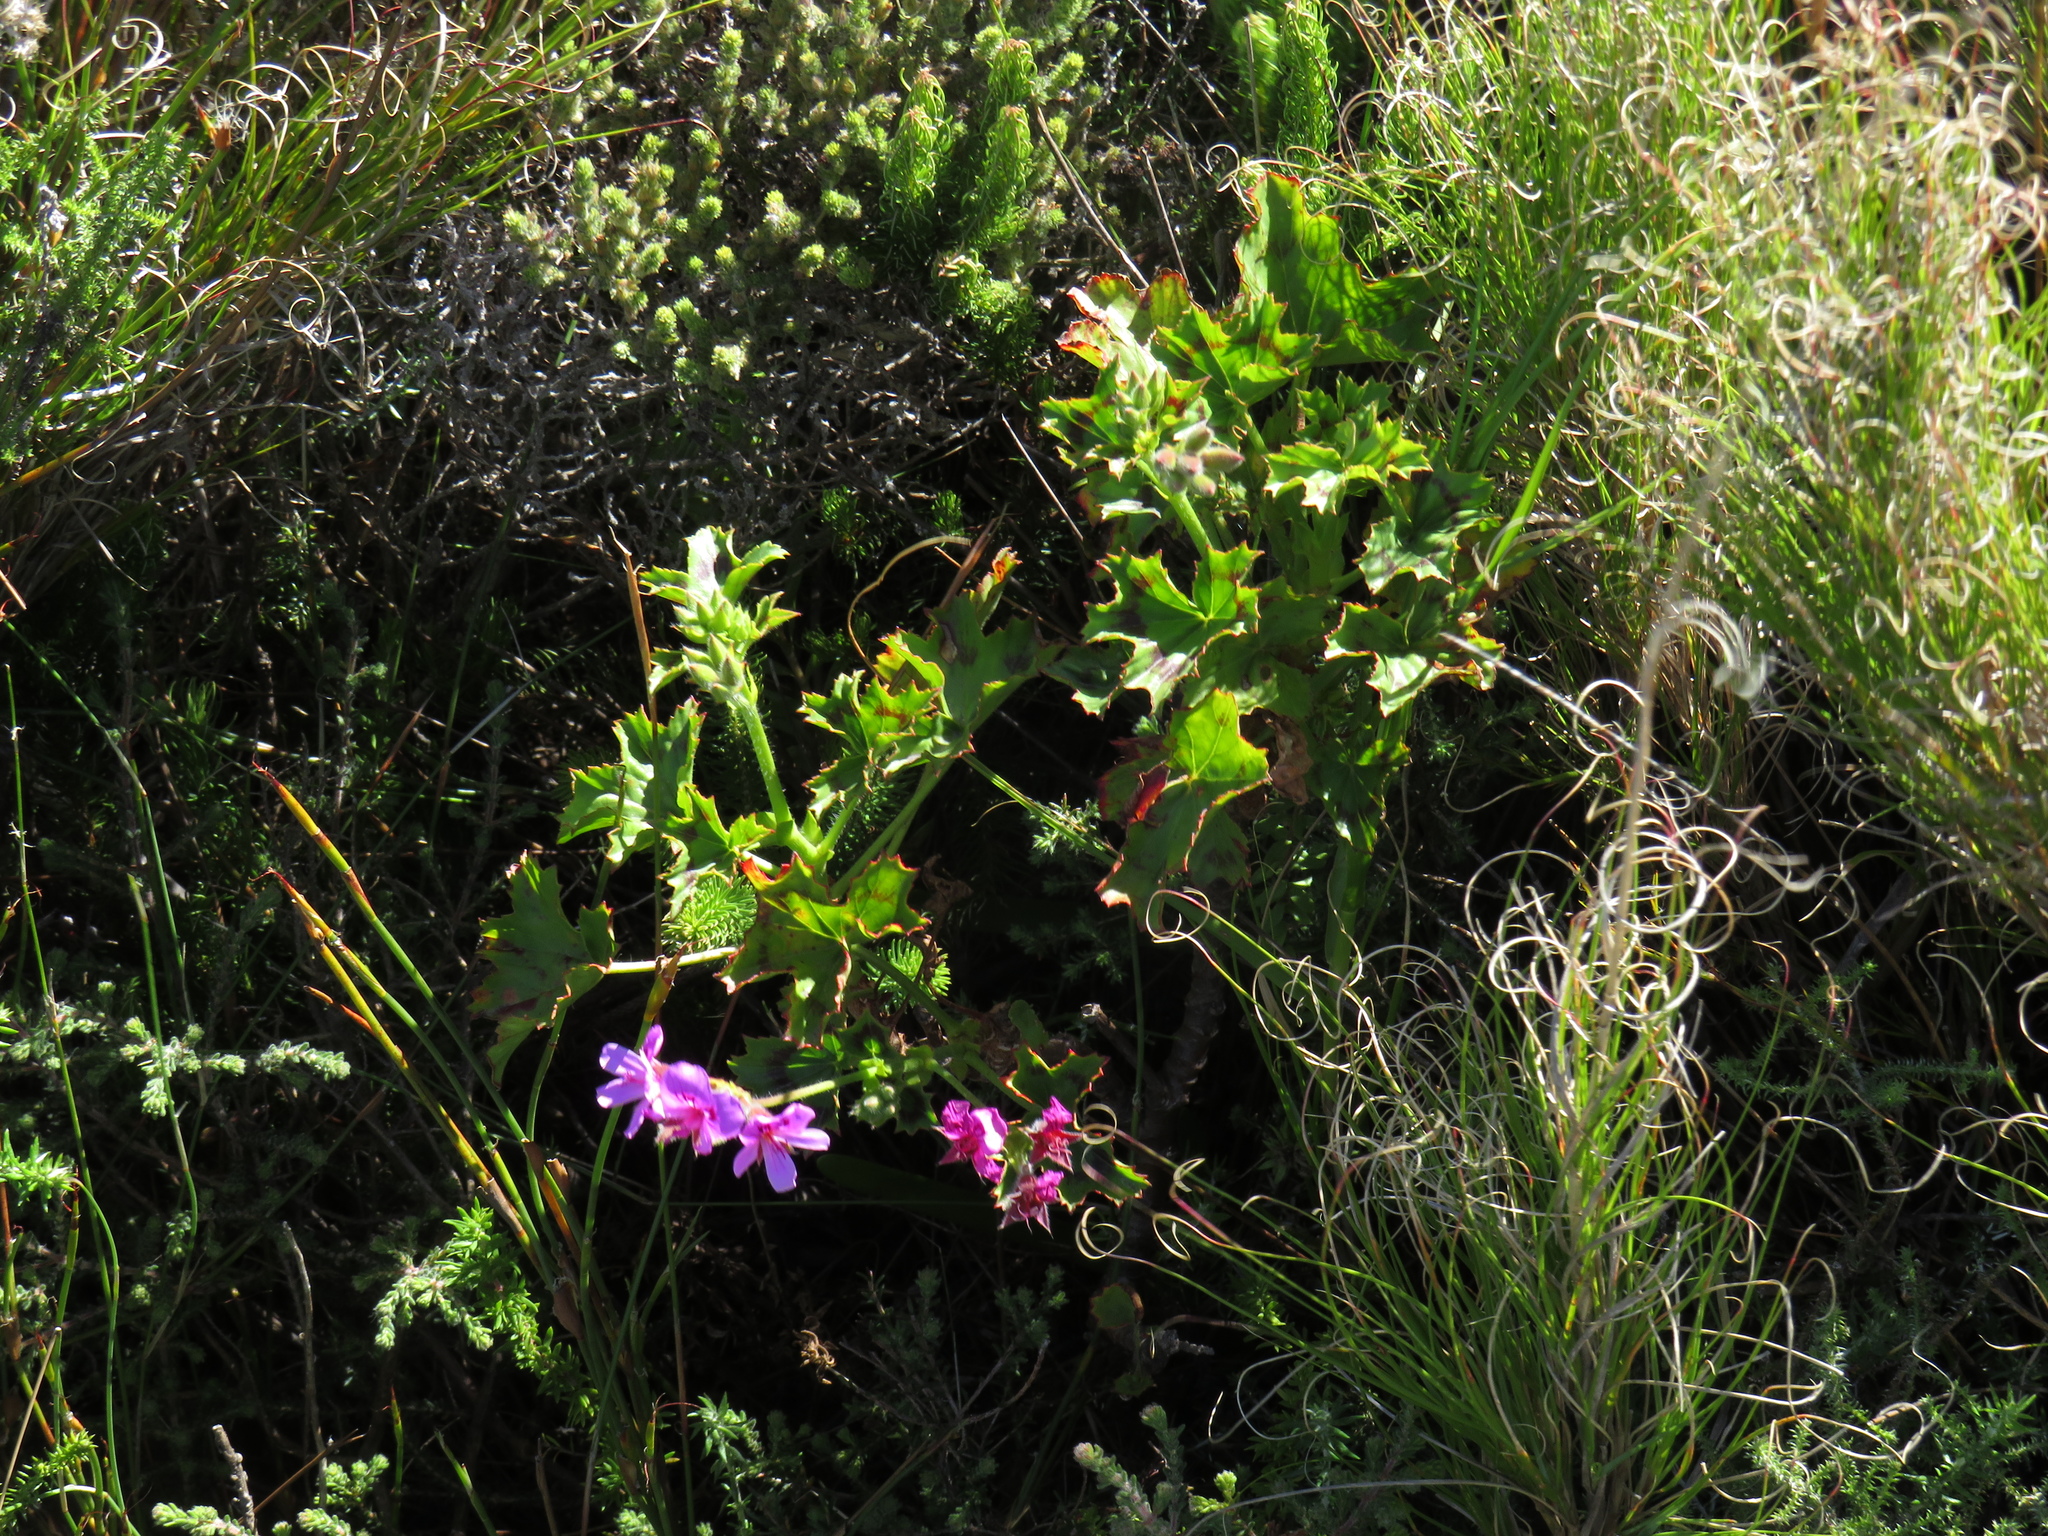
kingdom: Plantae
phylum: Tracheophyta
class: Magnoliopsida
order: Geraniales
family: Geraniaceae
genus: Pelargonium
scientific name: Pelargonium grandiflorum
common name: Large-flower pelargonium
